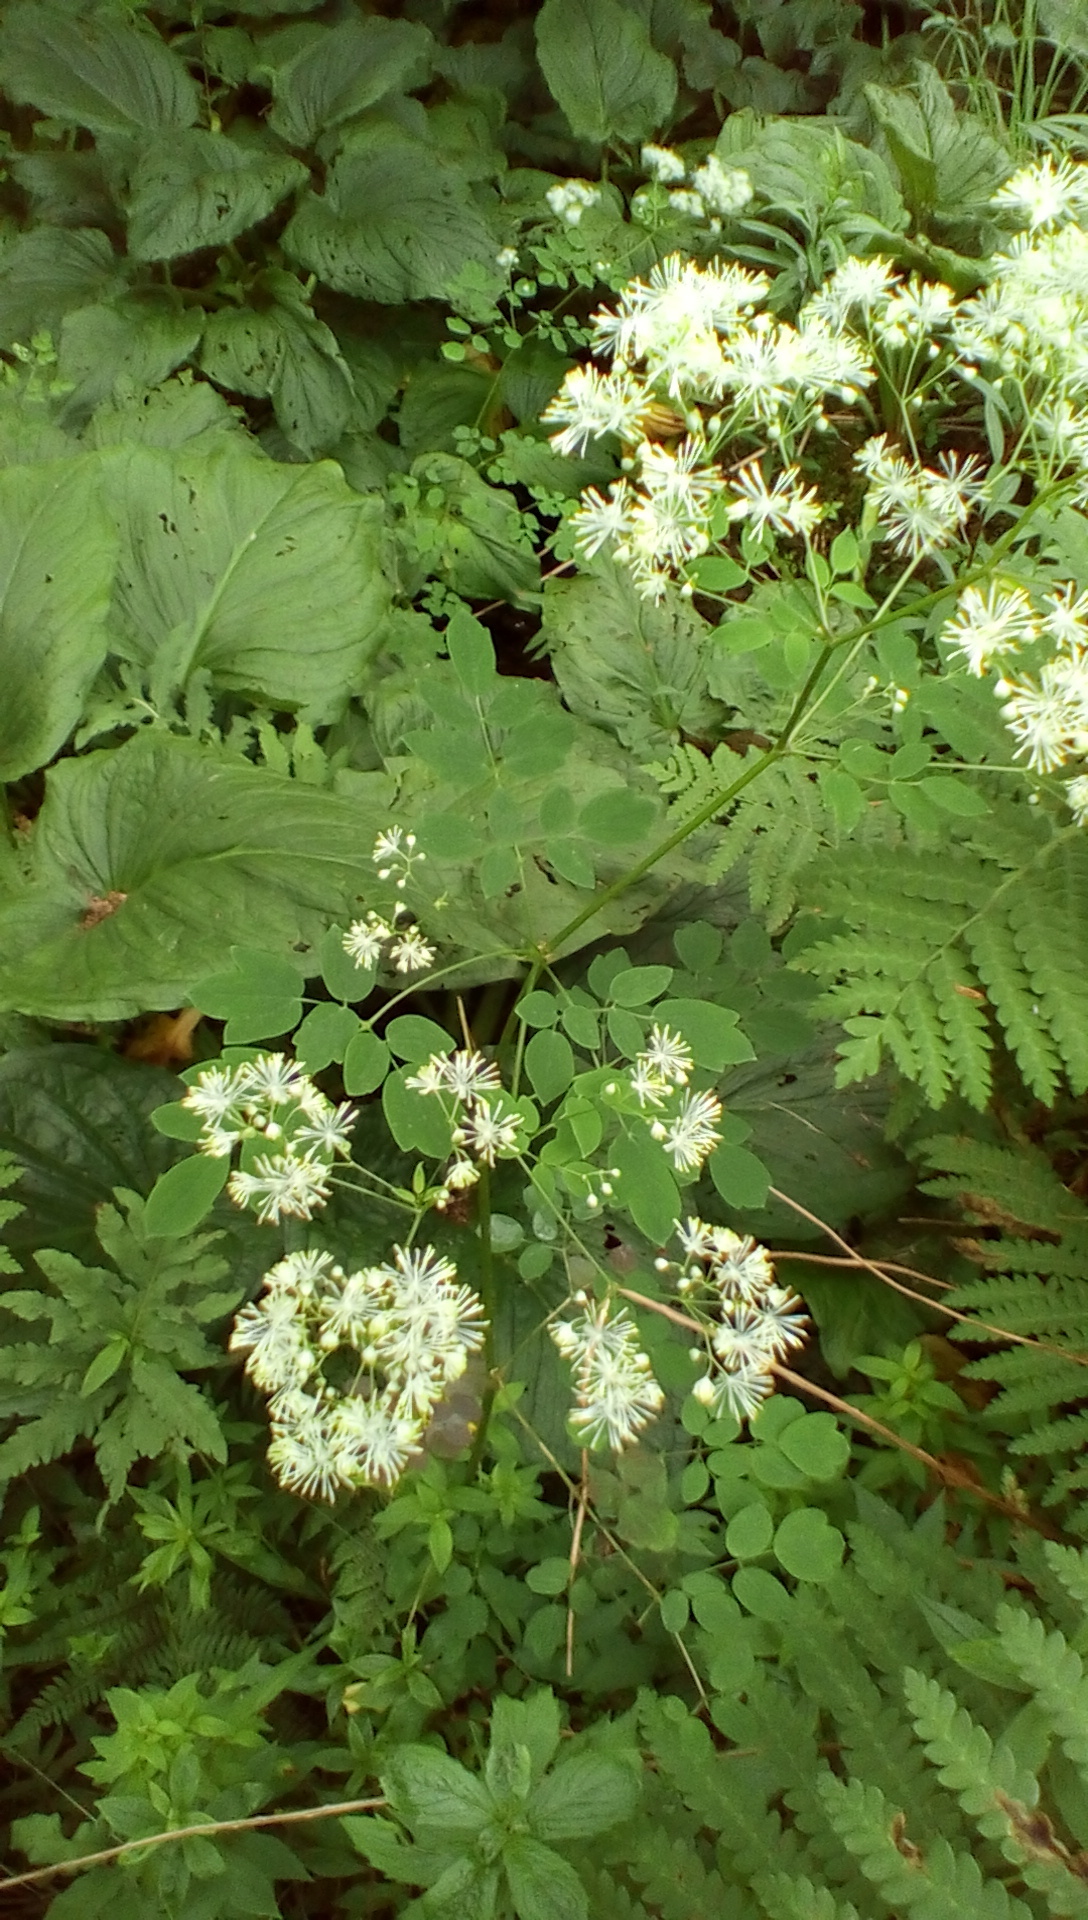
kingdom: Plantae
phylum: Tracheophyta
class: Magnoliopsida
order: Ranunculales
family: Ranunculaceae
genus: Thalictrum
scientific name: Thalictrum pubescens
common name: King-of-the-meadow
